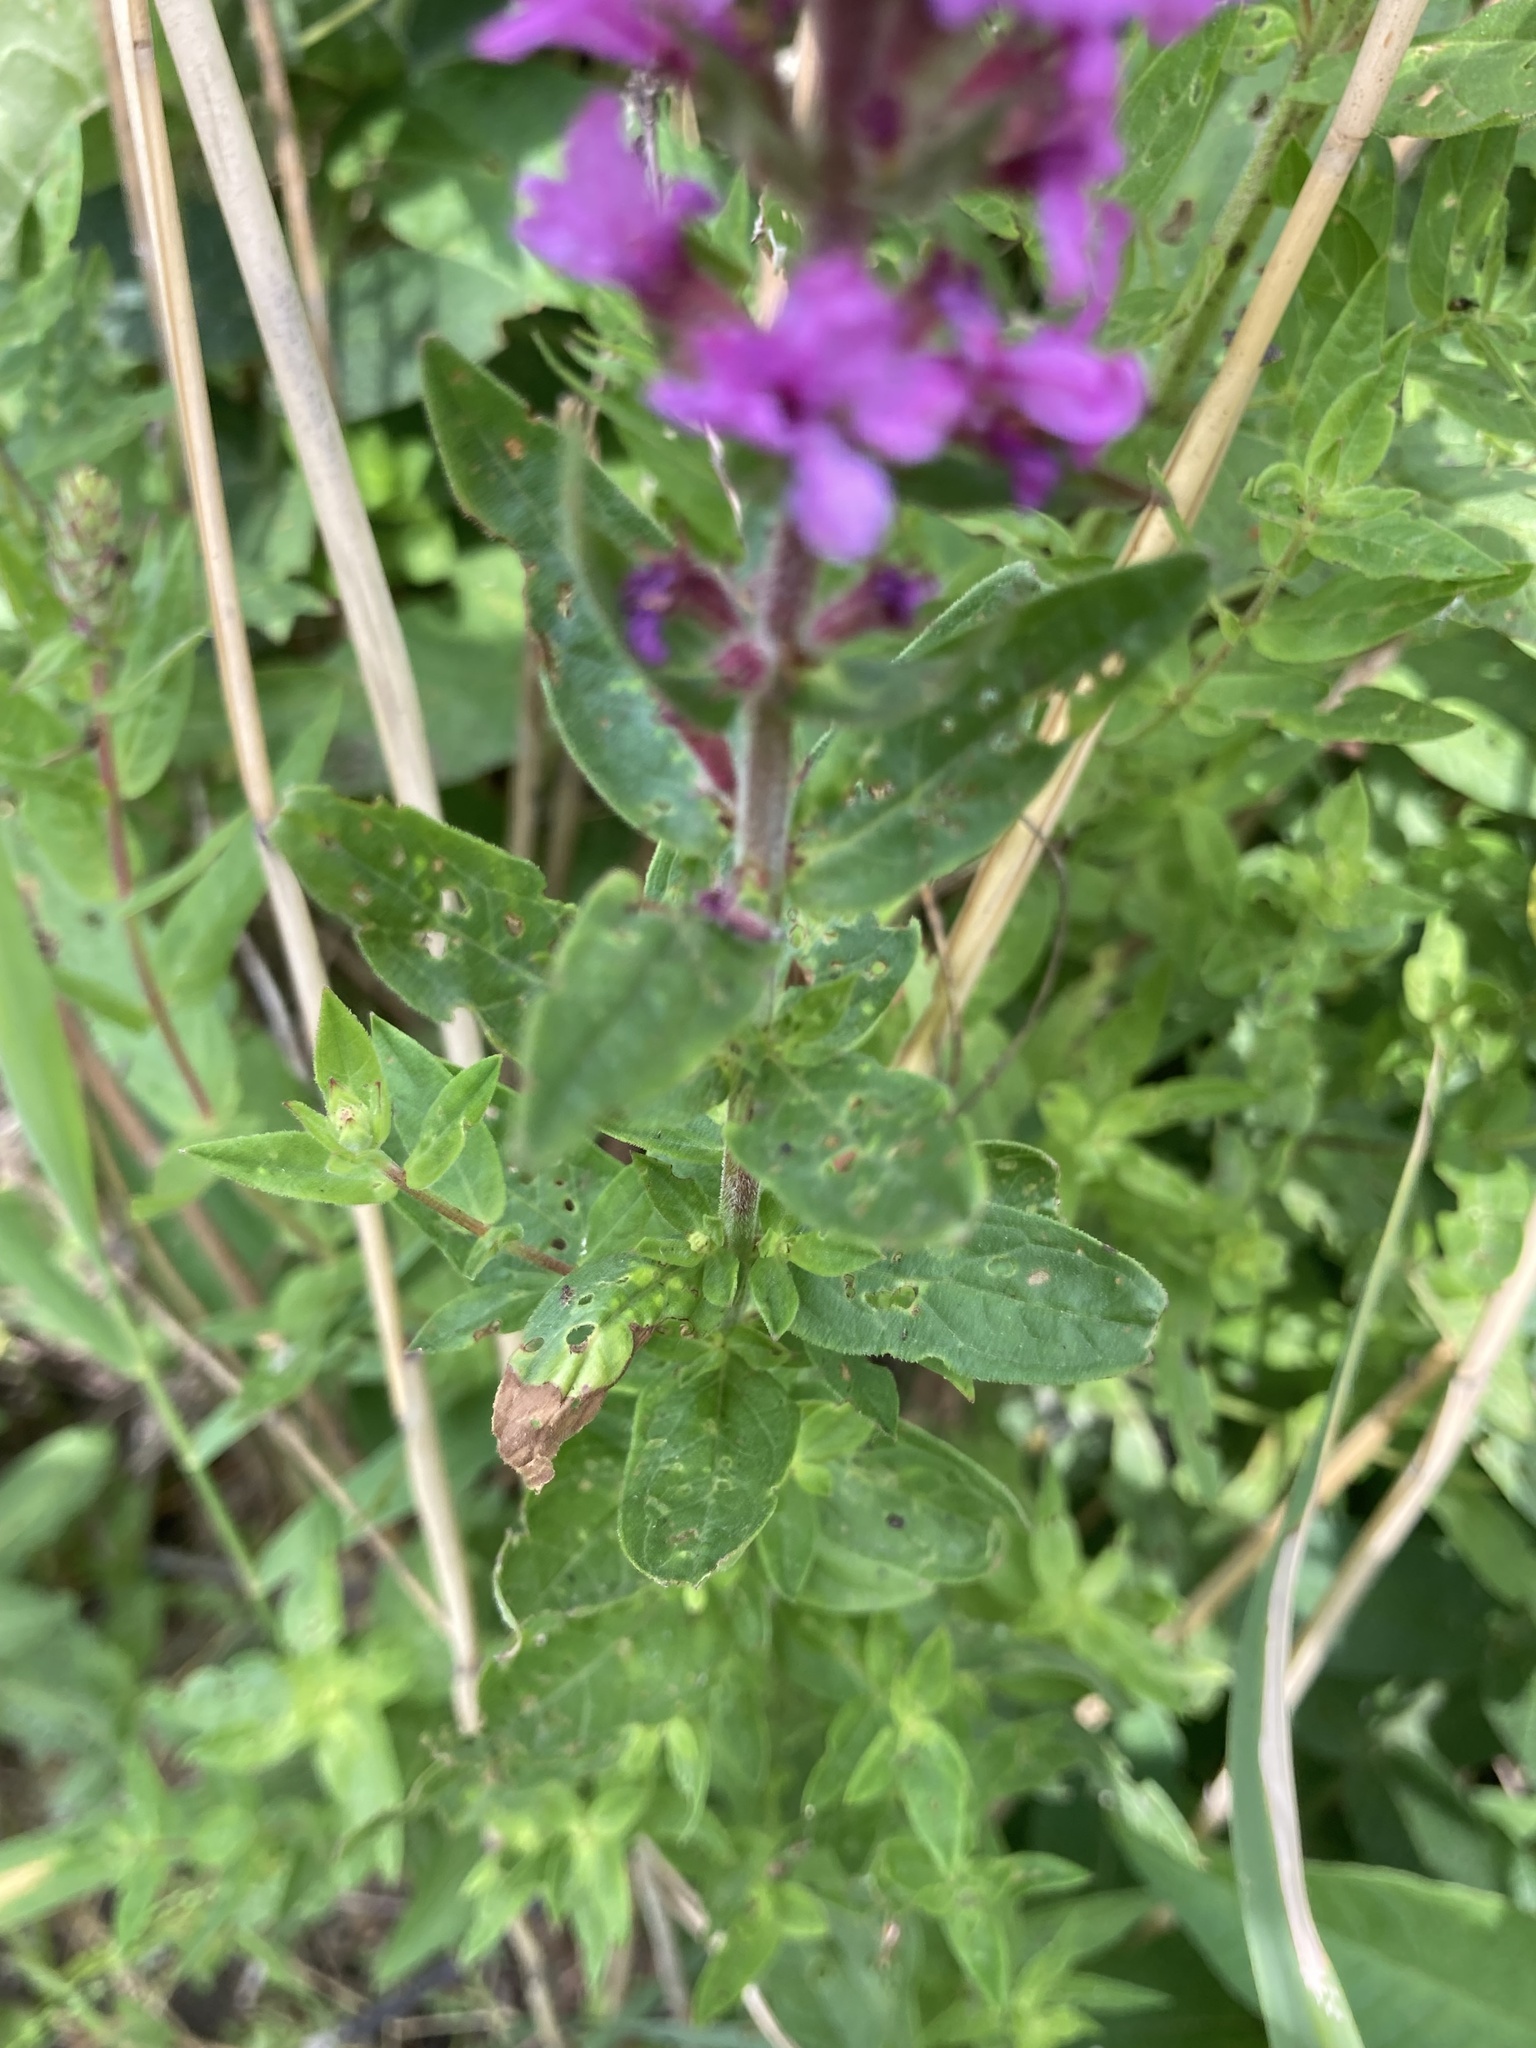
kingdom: Plantae
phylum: Tracheophyta
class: Magnoliopsida
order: Myrtales
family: Lythraceae
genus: Lythrum
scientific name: Lythrum salicaria
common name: Purple loosestrife
